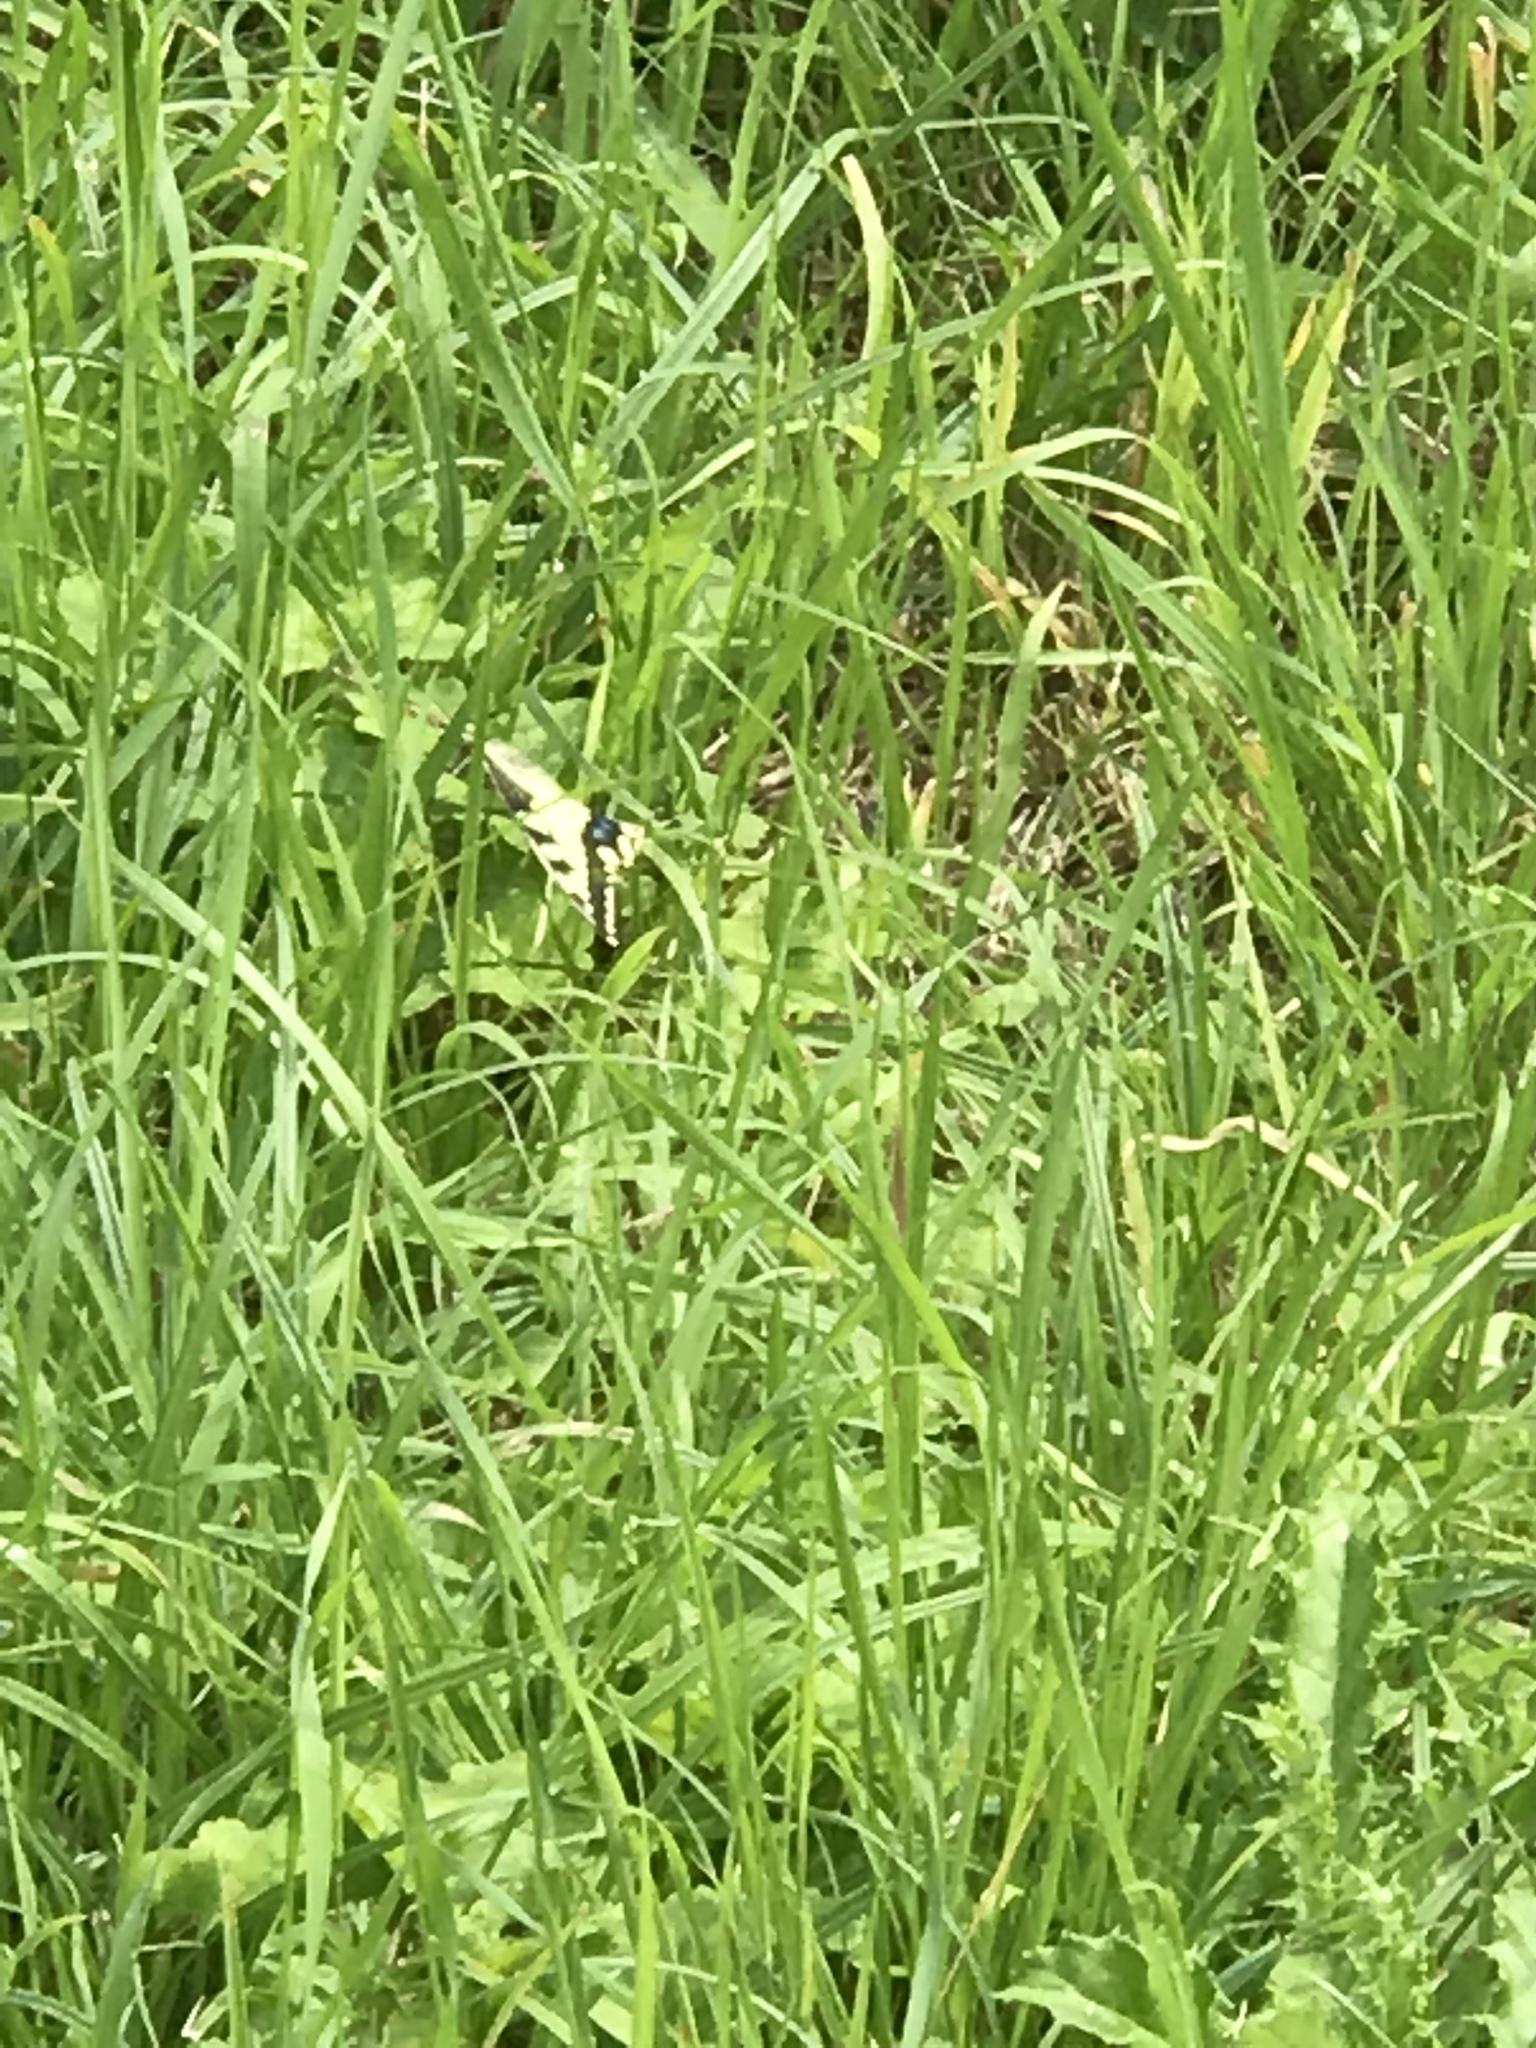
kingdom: Animalia
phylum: Arthropoda
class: Insecta
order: Lepidoptera
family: Papilionidae
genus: Papilio
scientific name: Papilio machaon
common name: Swallowtail
